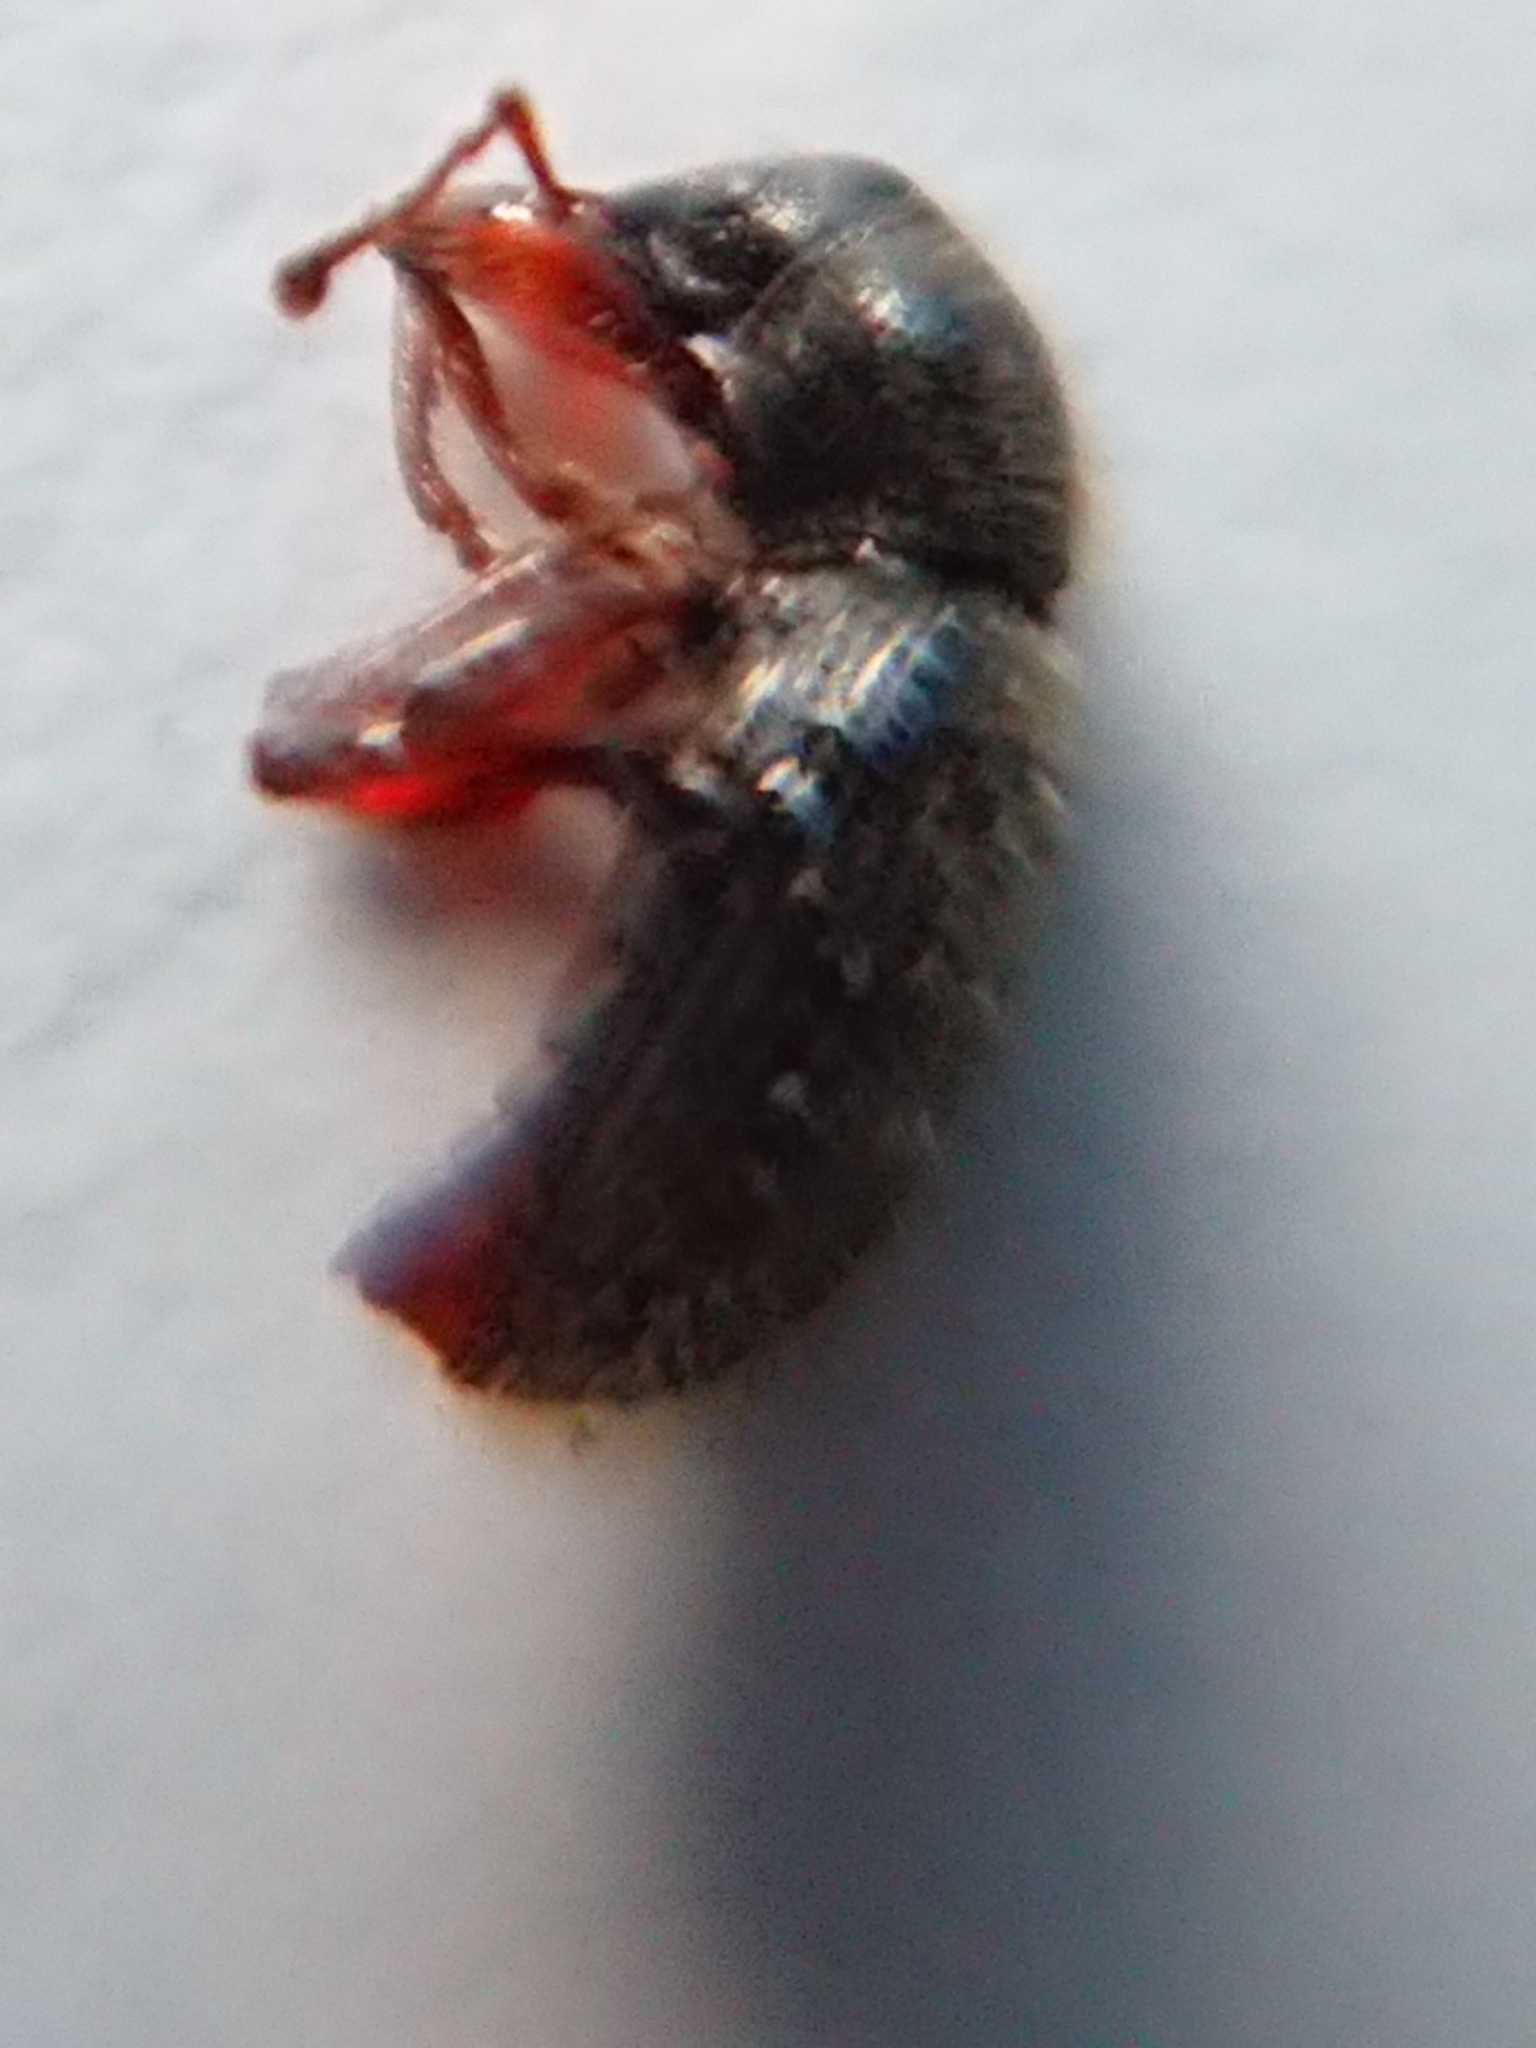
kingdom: Animalia
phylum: Arthropoda
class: Insecta
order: Coleoptera
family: Curculionidae
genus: Exomias
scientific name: Exomias pellucidus
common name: Hairy spider weevil
